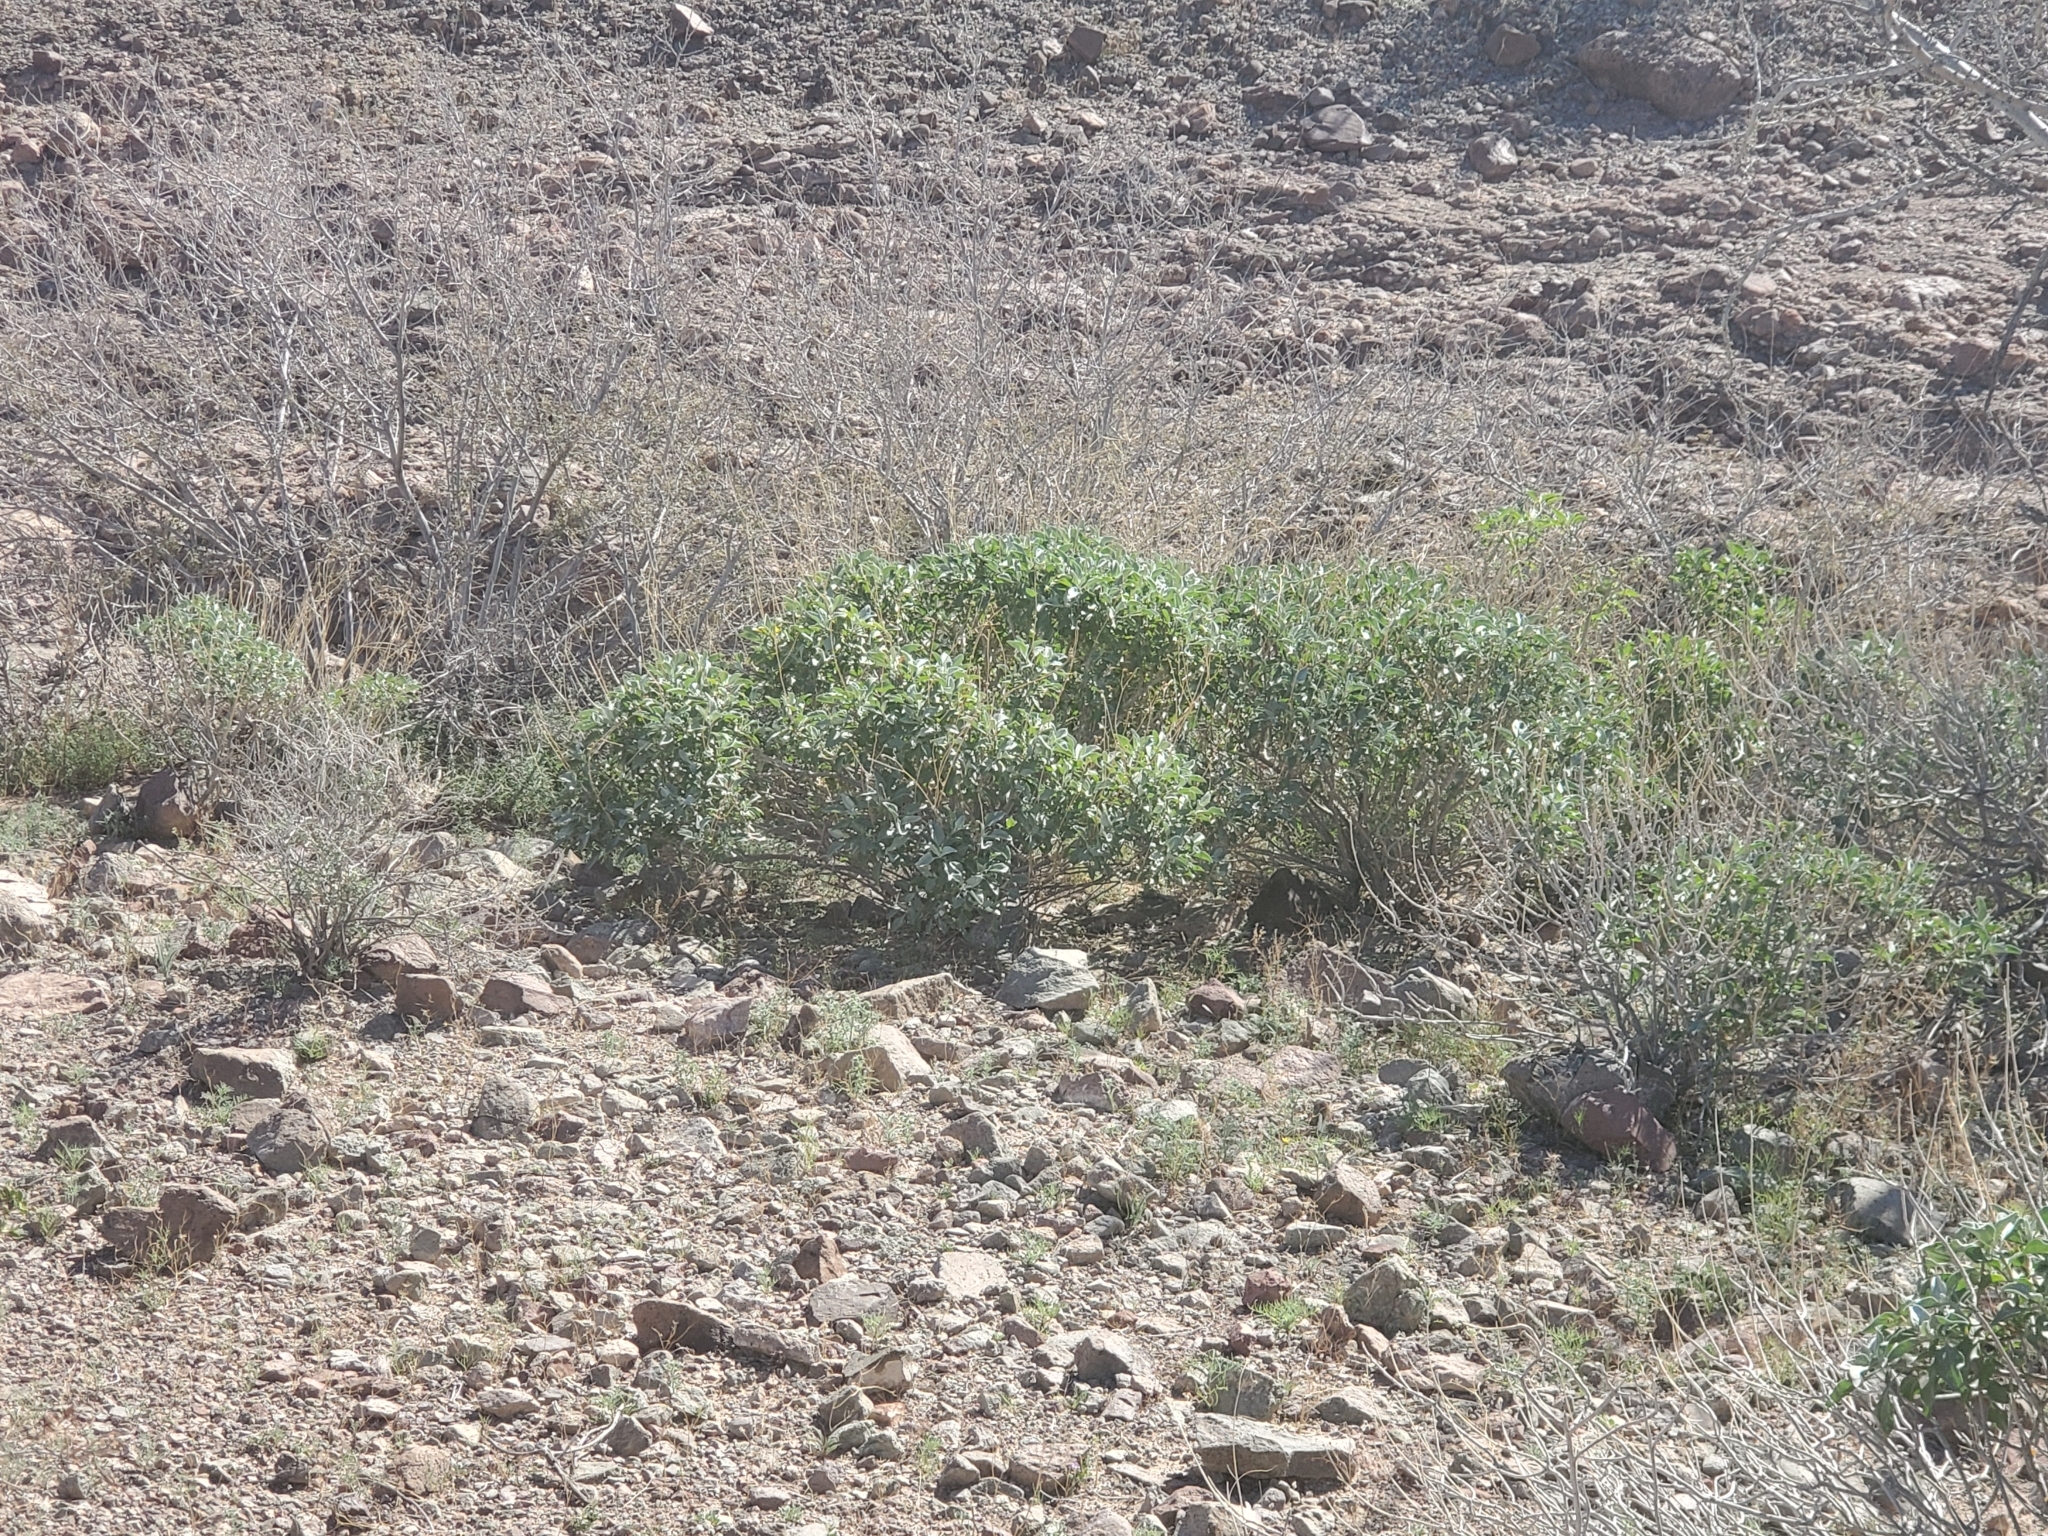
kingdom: Plantae
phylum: Tracheophyta
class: Magnoliopsida
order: Asterales
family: Asteraceae
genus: Encelia
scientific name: Encelia farinosa
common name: Brittlebush
